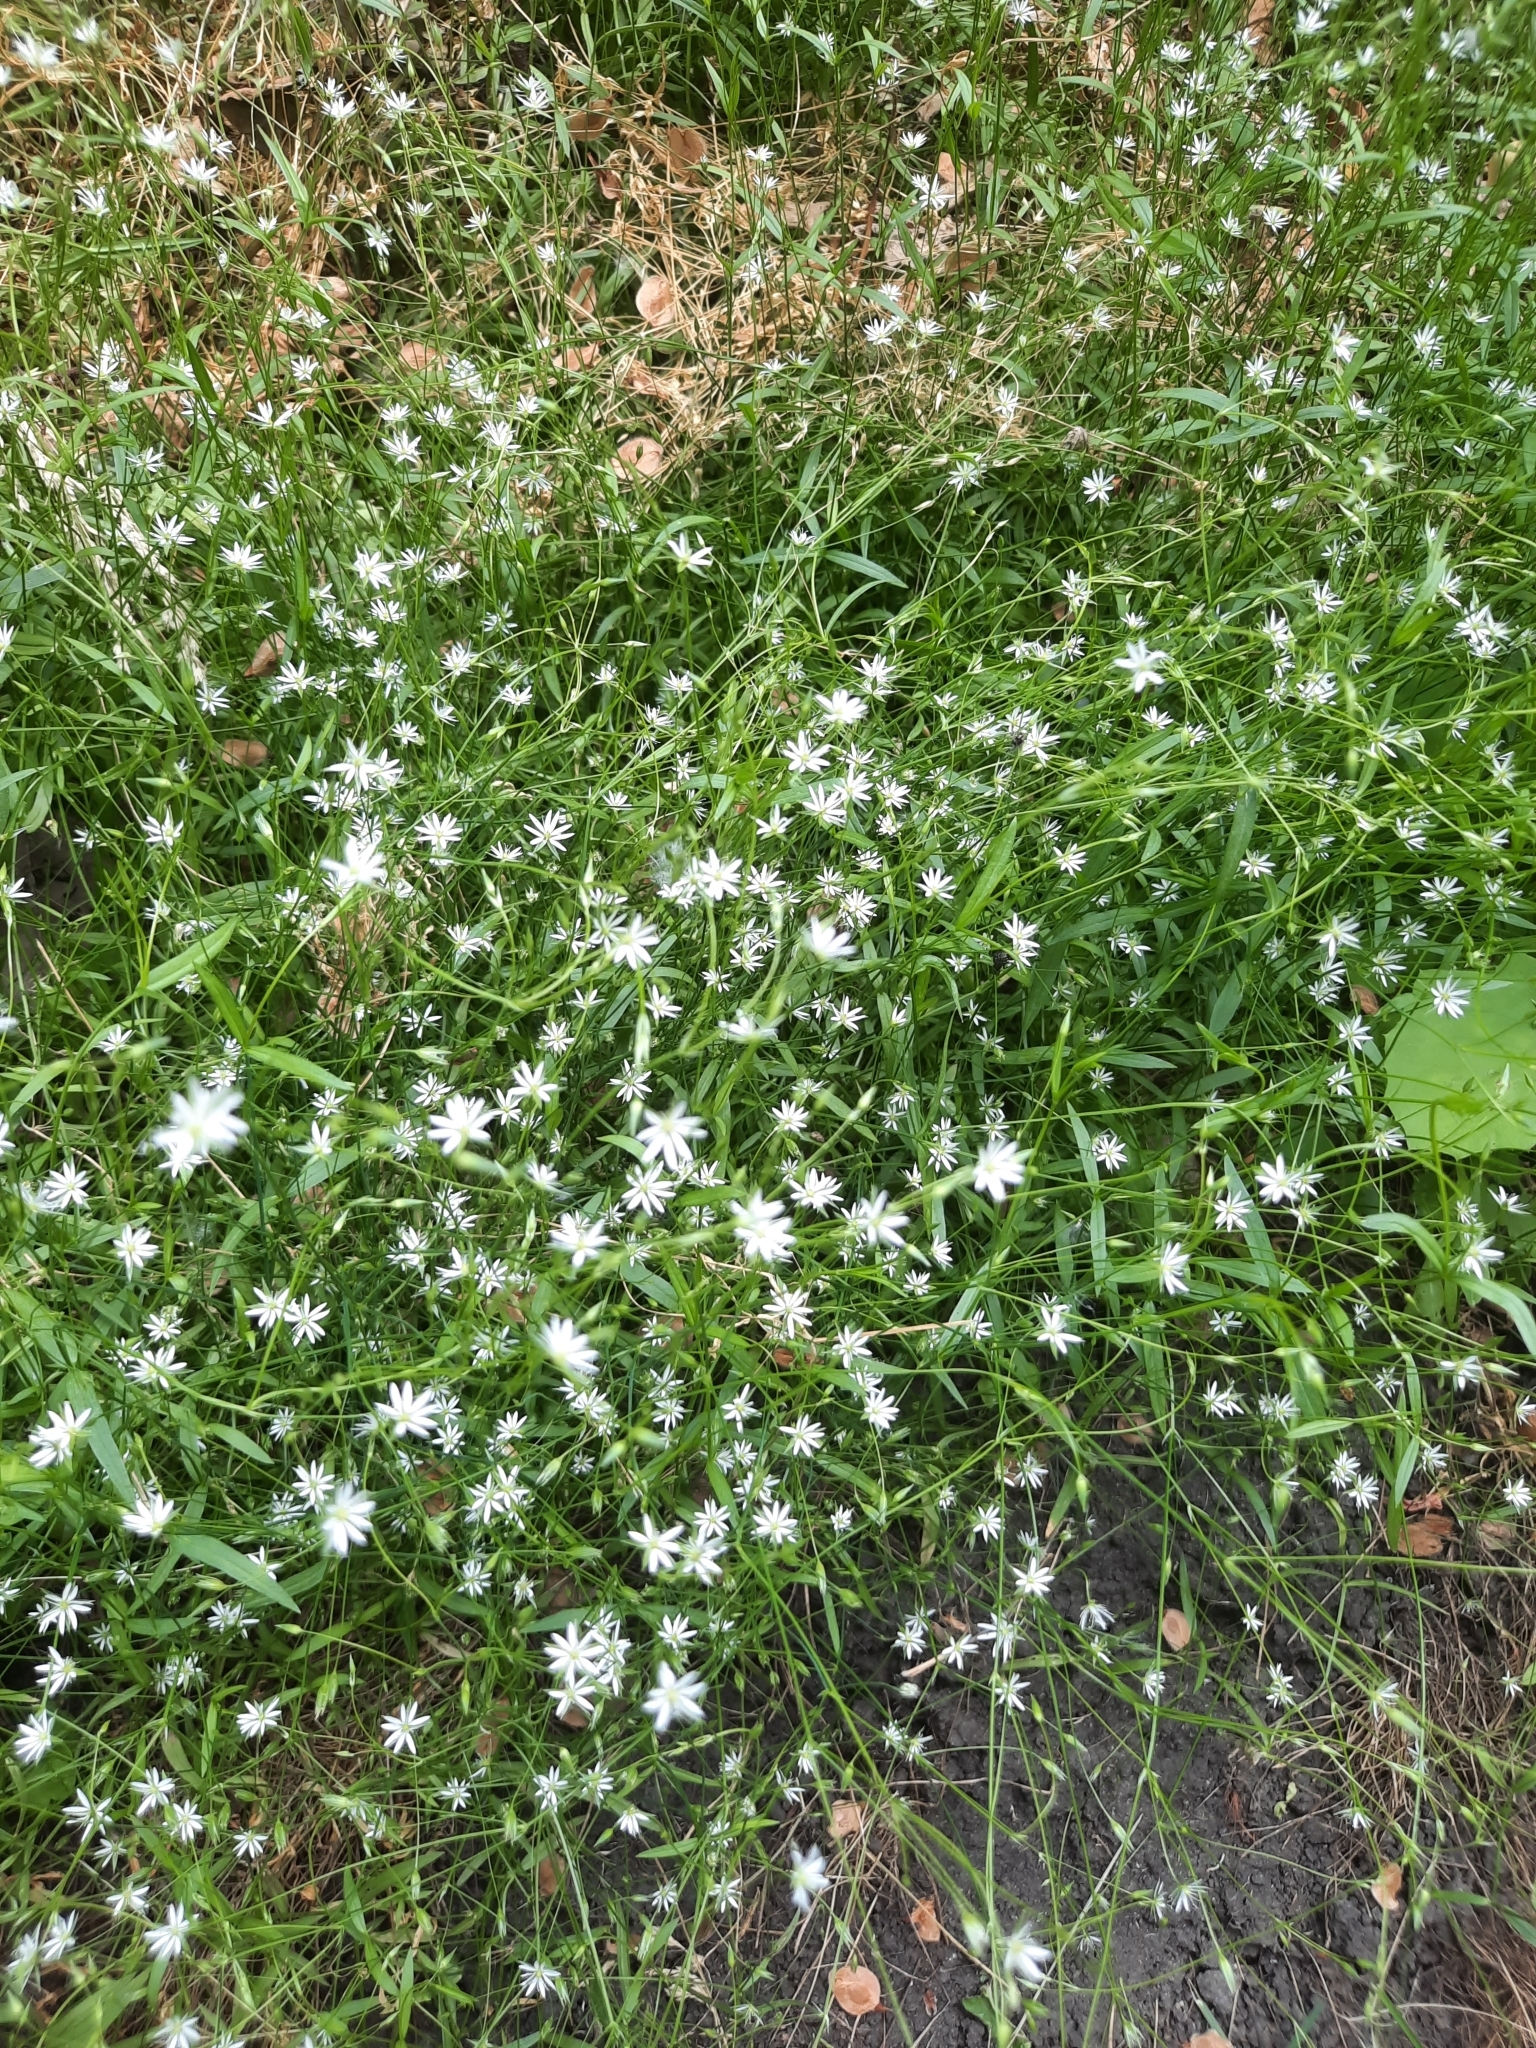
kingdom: Plantae
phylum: Tracheophyta
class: Magnoliopsida
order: Caryophyllales
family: Caryophyllaceae
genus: Stellaria
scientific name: Stellaria graminea
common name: Grass-like starwort
